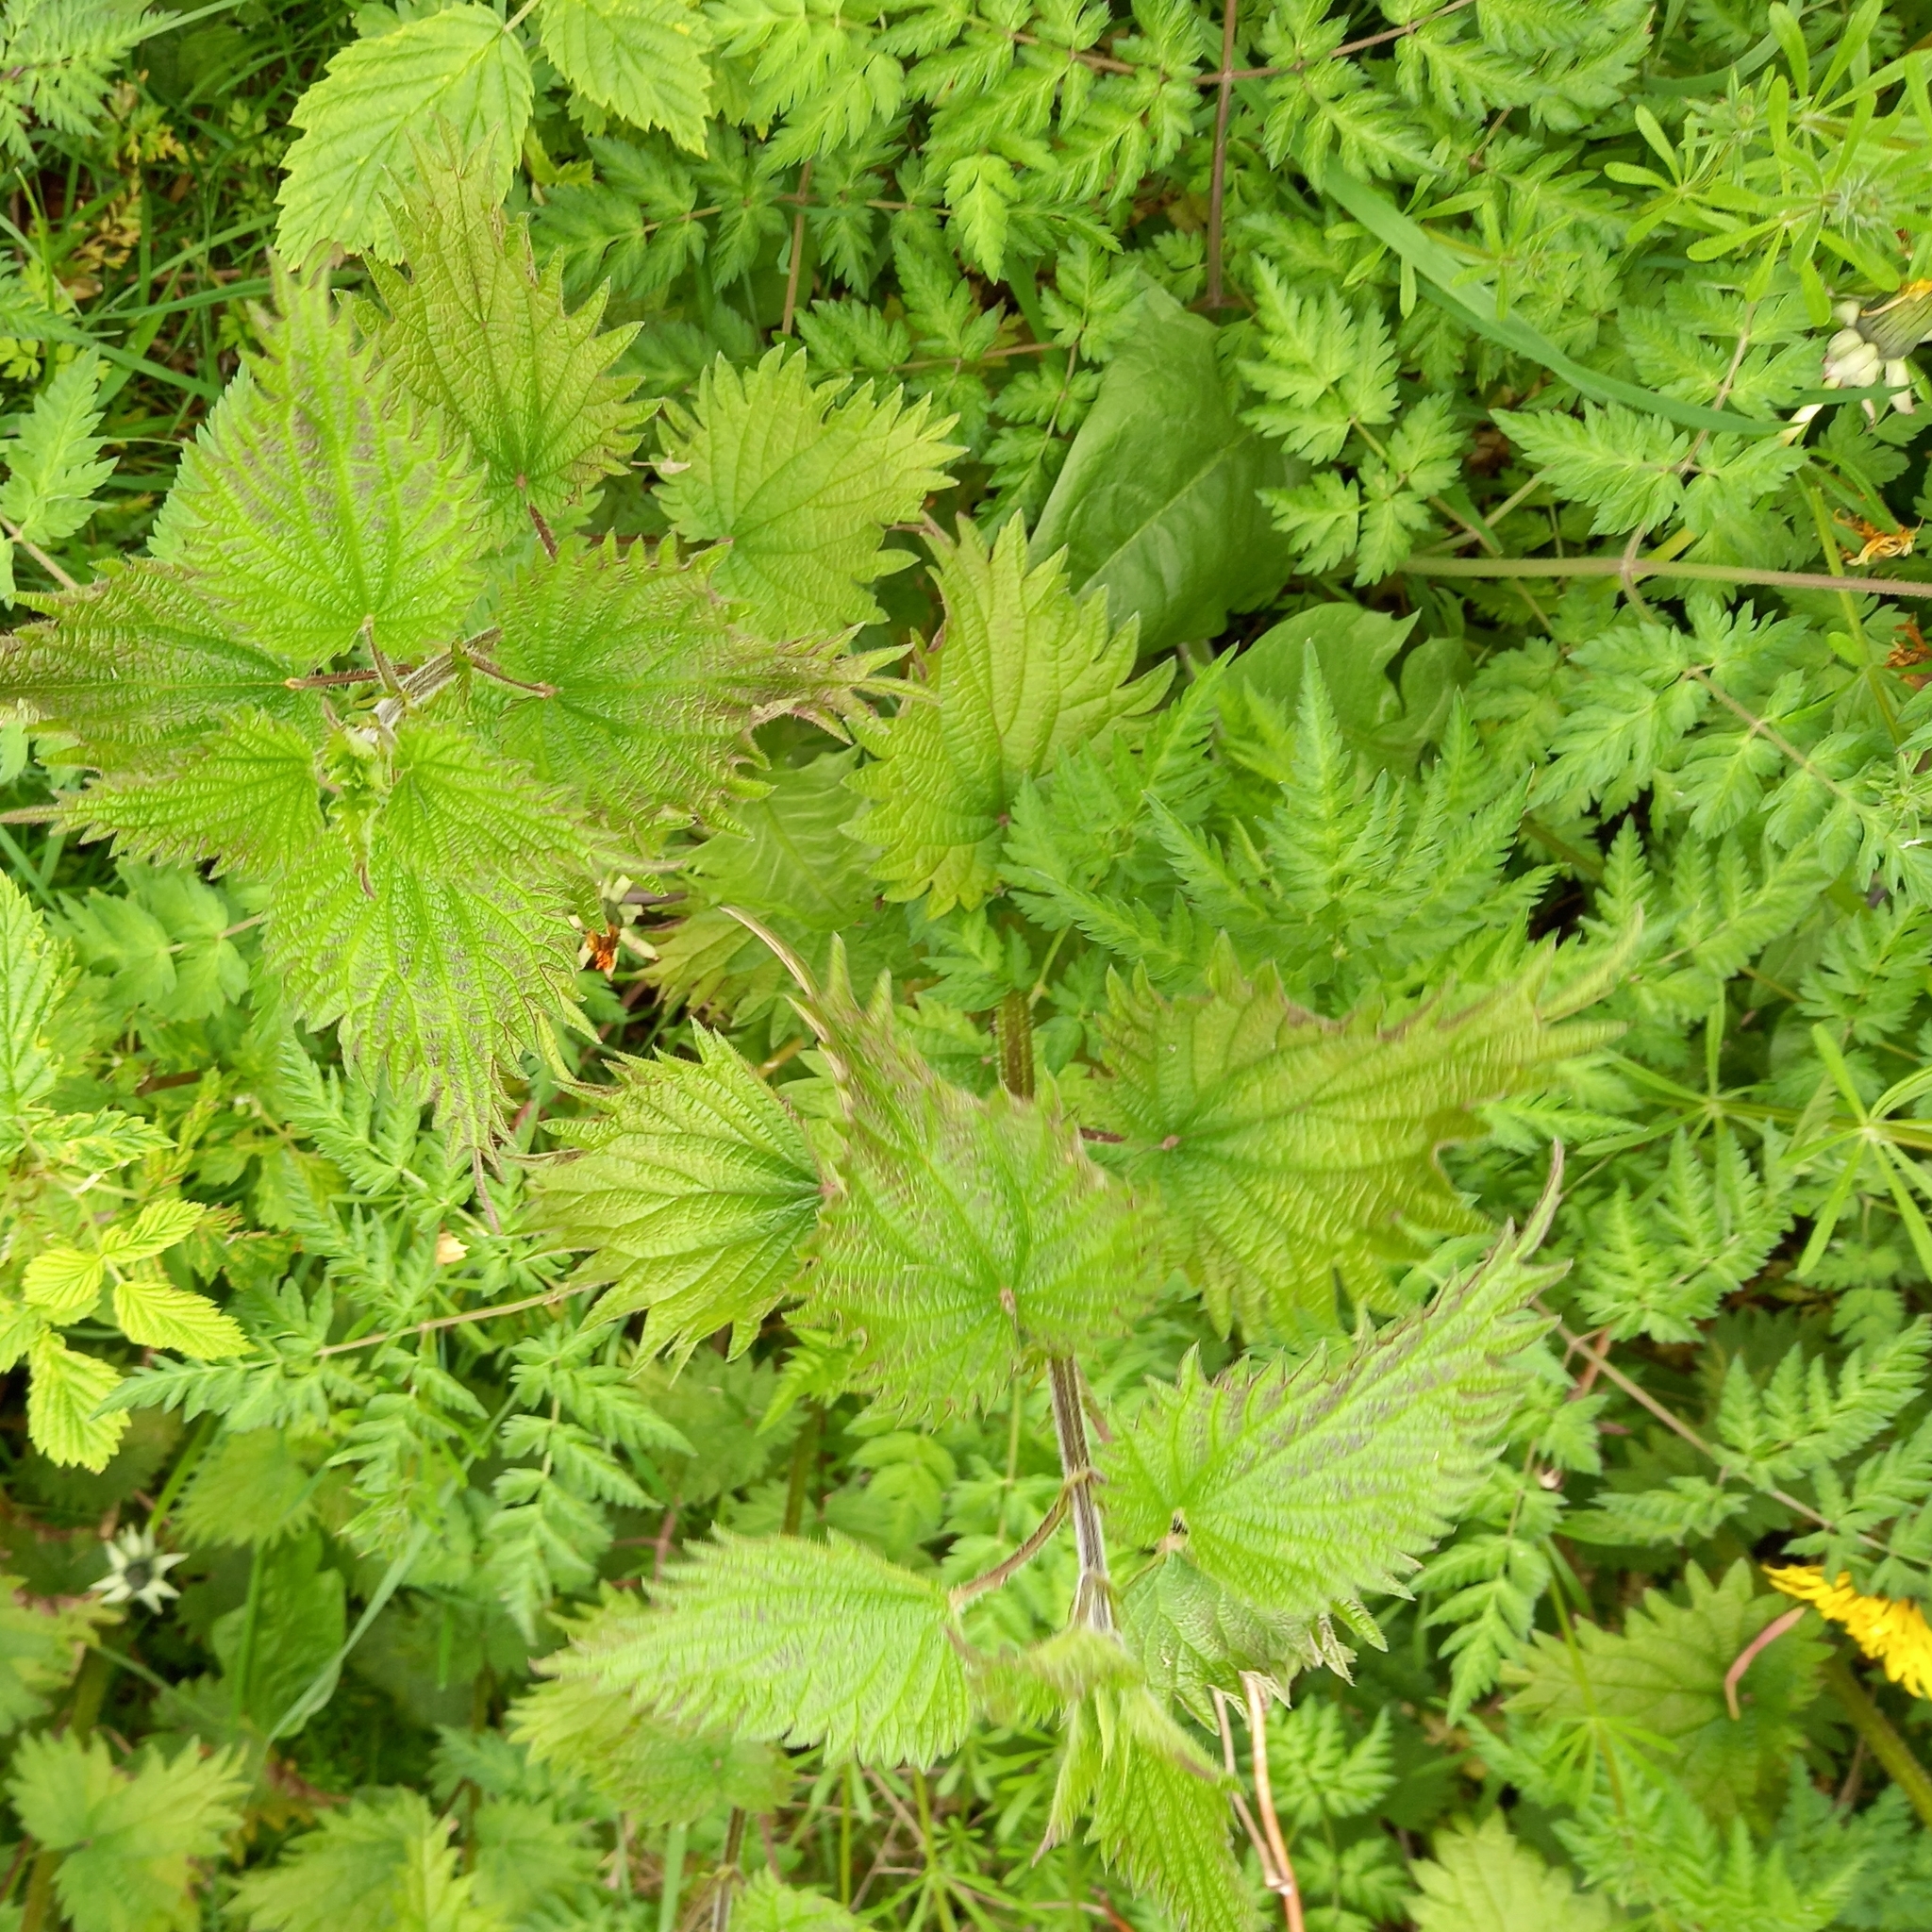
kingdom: Plantae
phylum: Tracheophyta
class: Magnoliopsida
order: Rosales
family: Urticaceae
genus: Urtica
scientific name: Urtica dioica
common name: Common nettle
